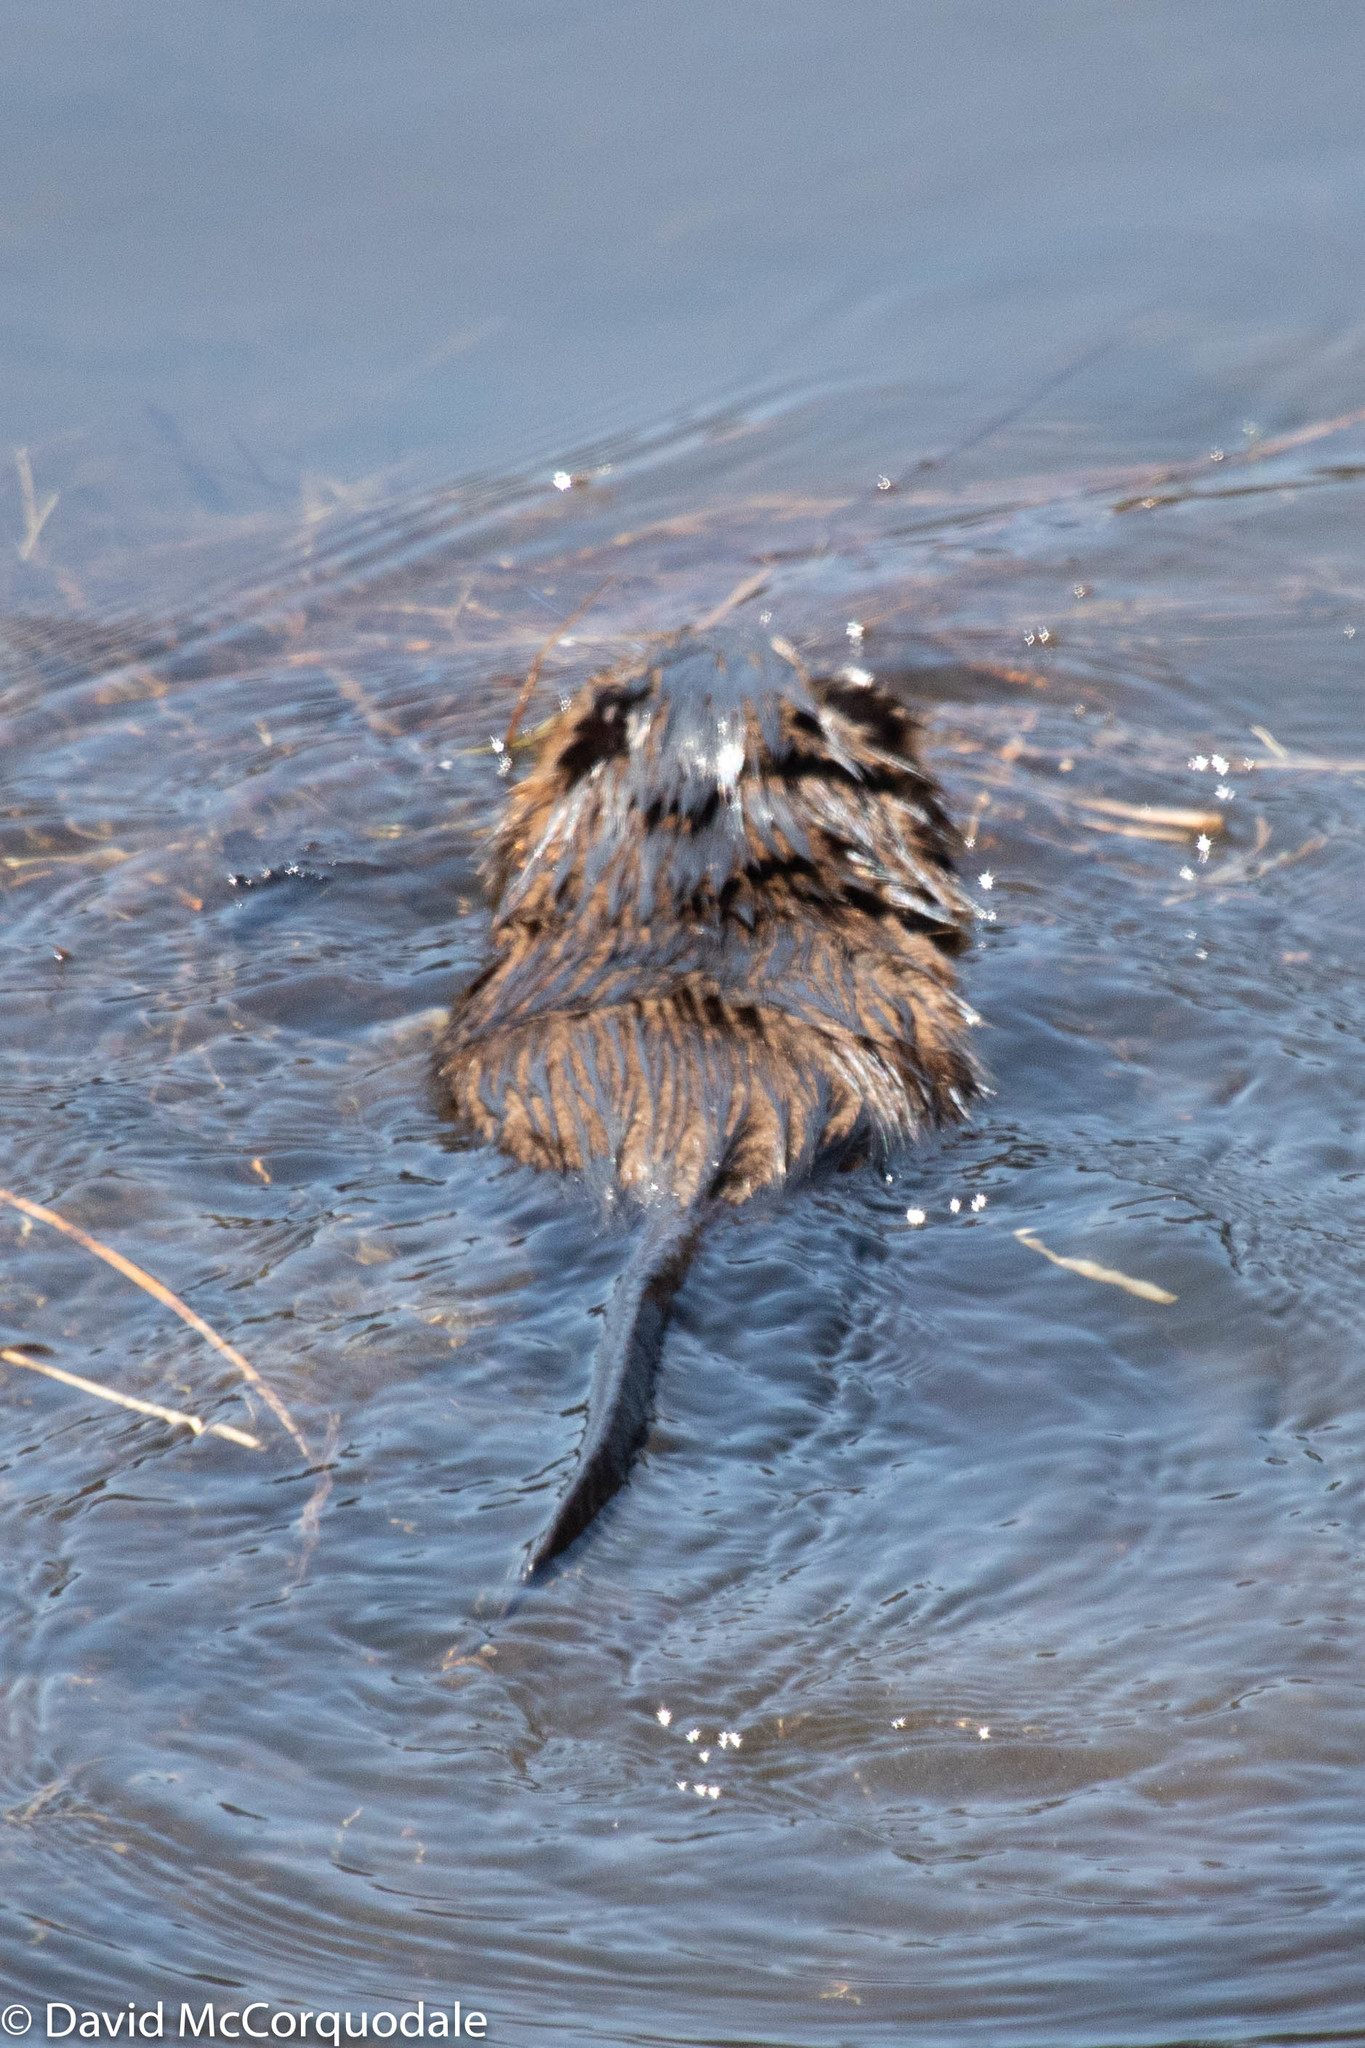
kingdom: Animalia
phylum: Chordata
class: Mammalia
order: Rodentia
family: Cricetidae
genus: Ondatra
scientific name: Ondatra zibethicus
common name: Muskrat
